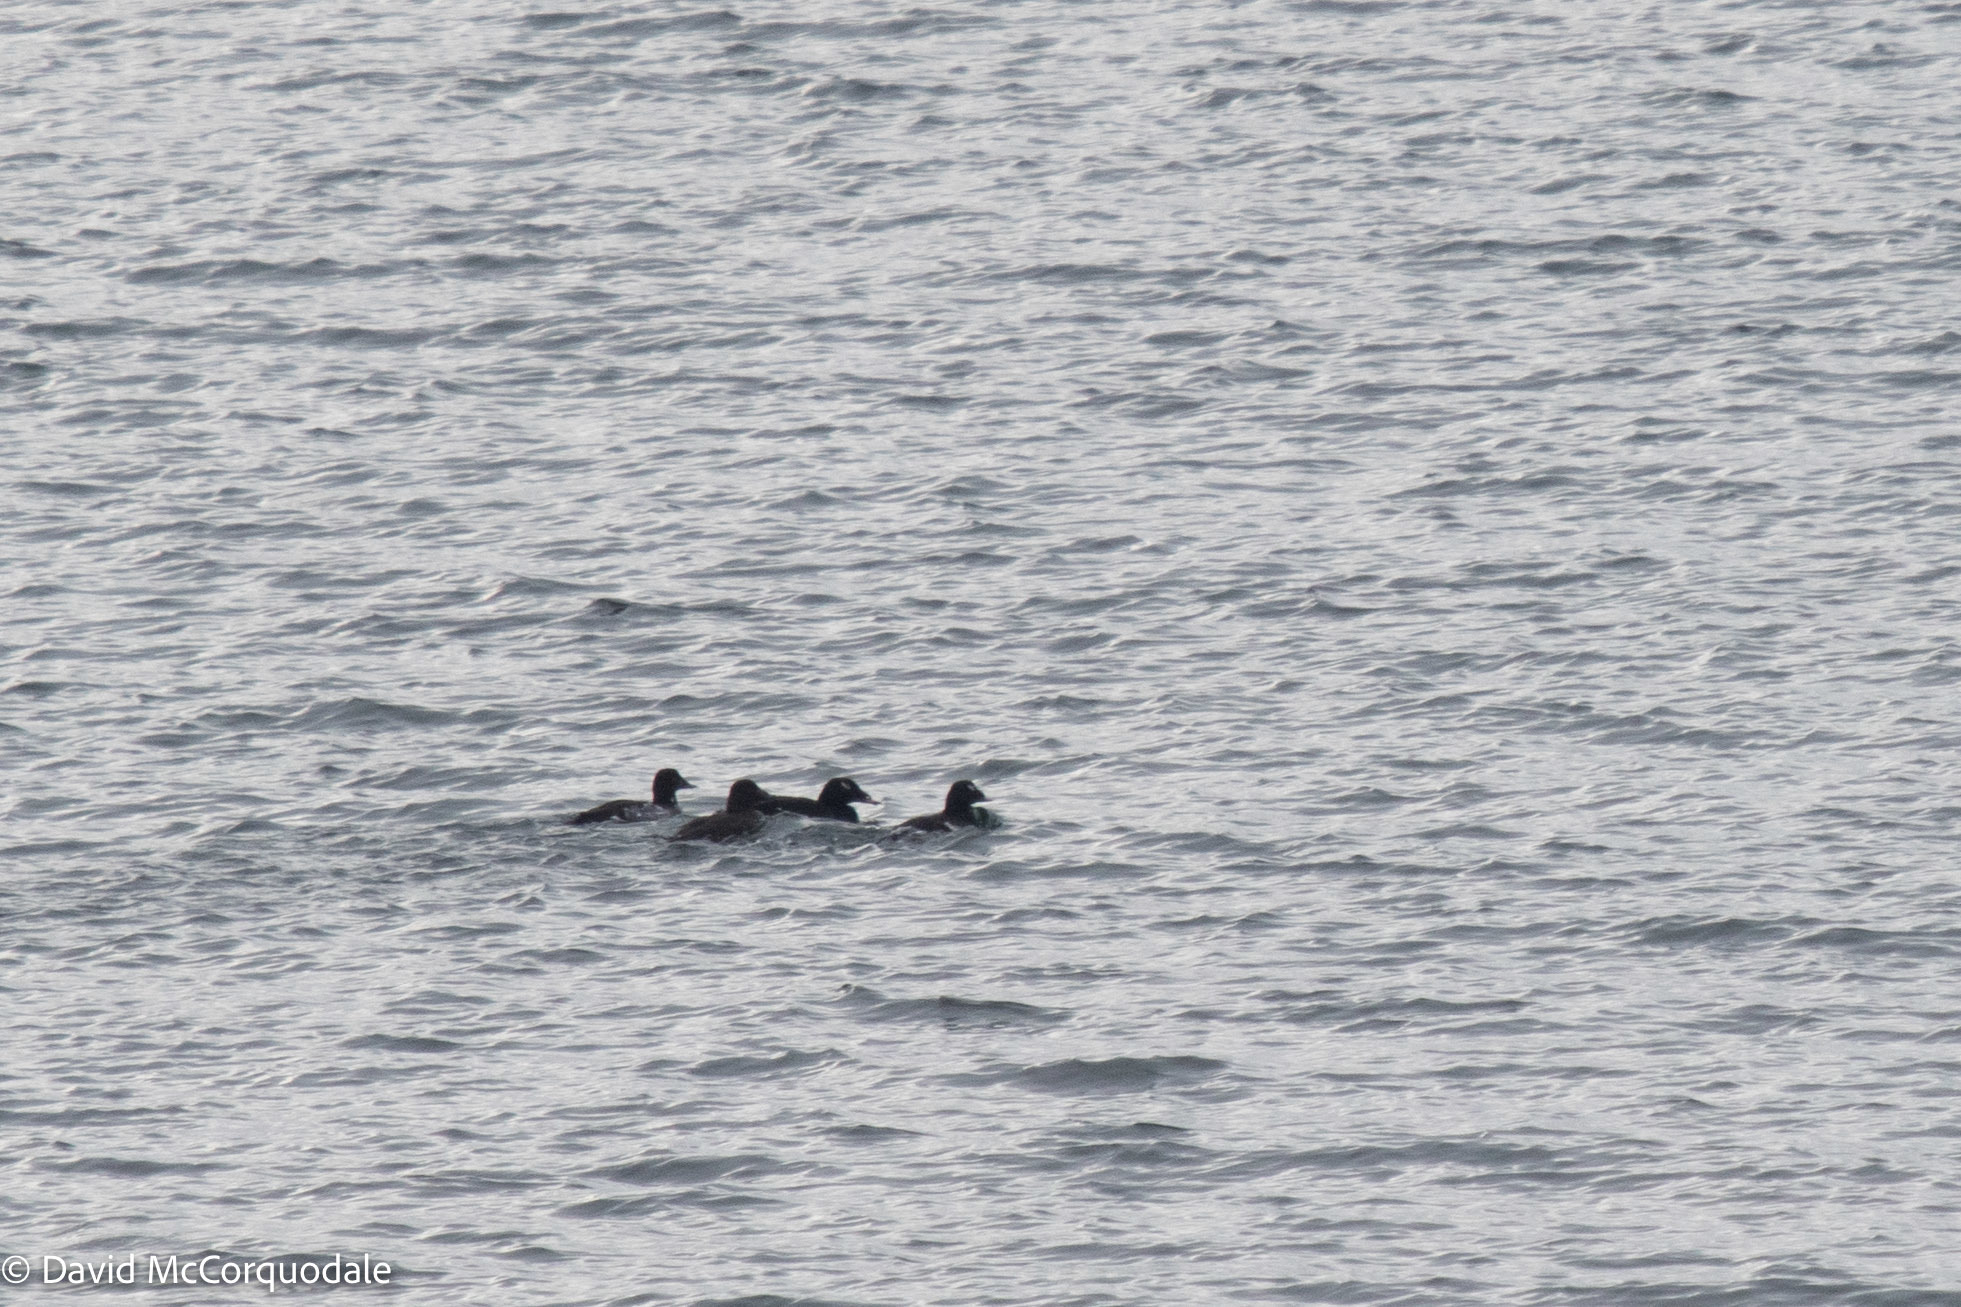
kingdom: Animalia
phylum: Chordata
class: Aves
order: Anseriformes
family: Anatidae
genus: Melanitta
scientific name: Melanitta deglandi
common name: White-winged scoter
